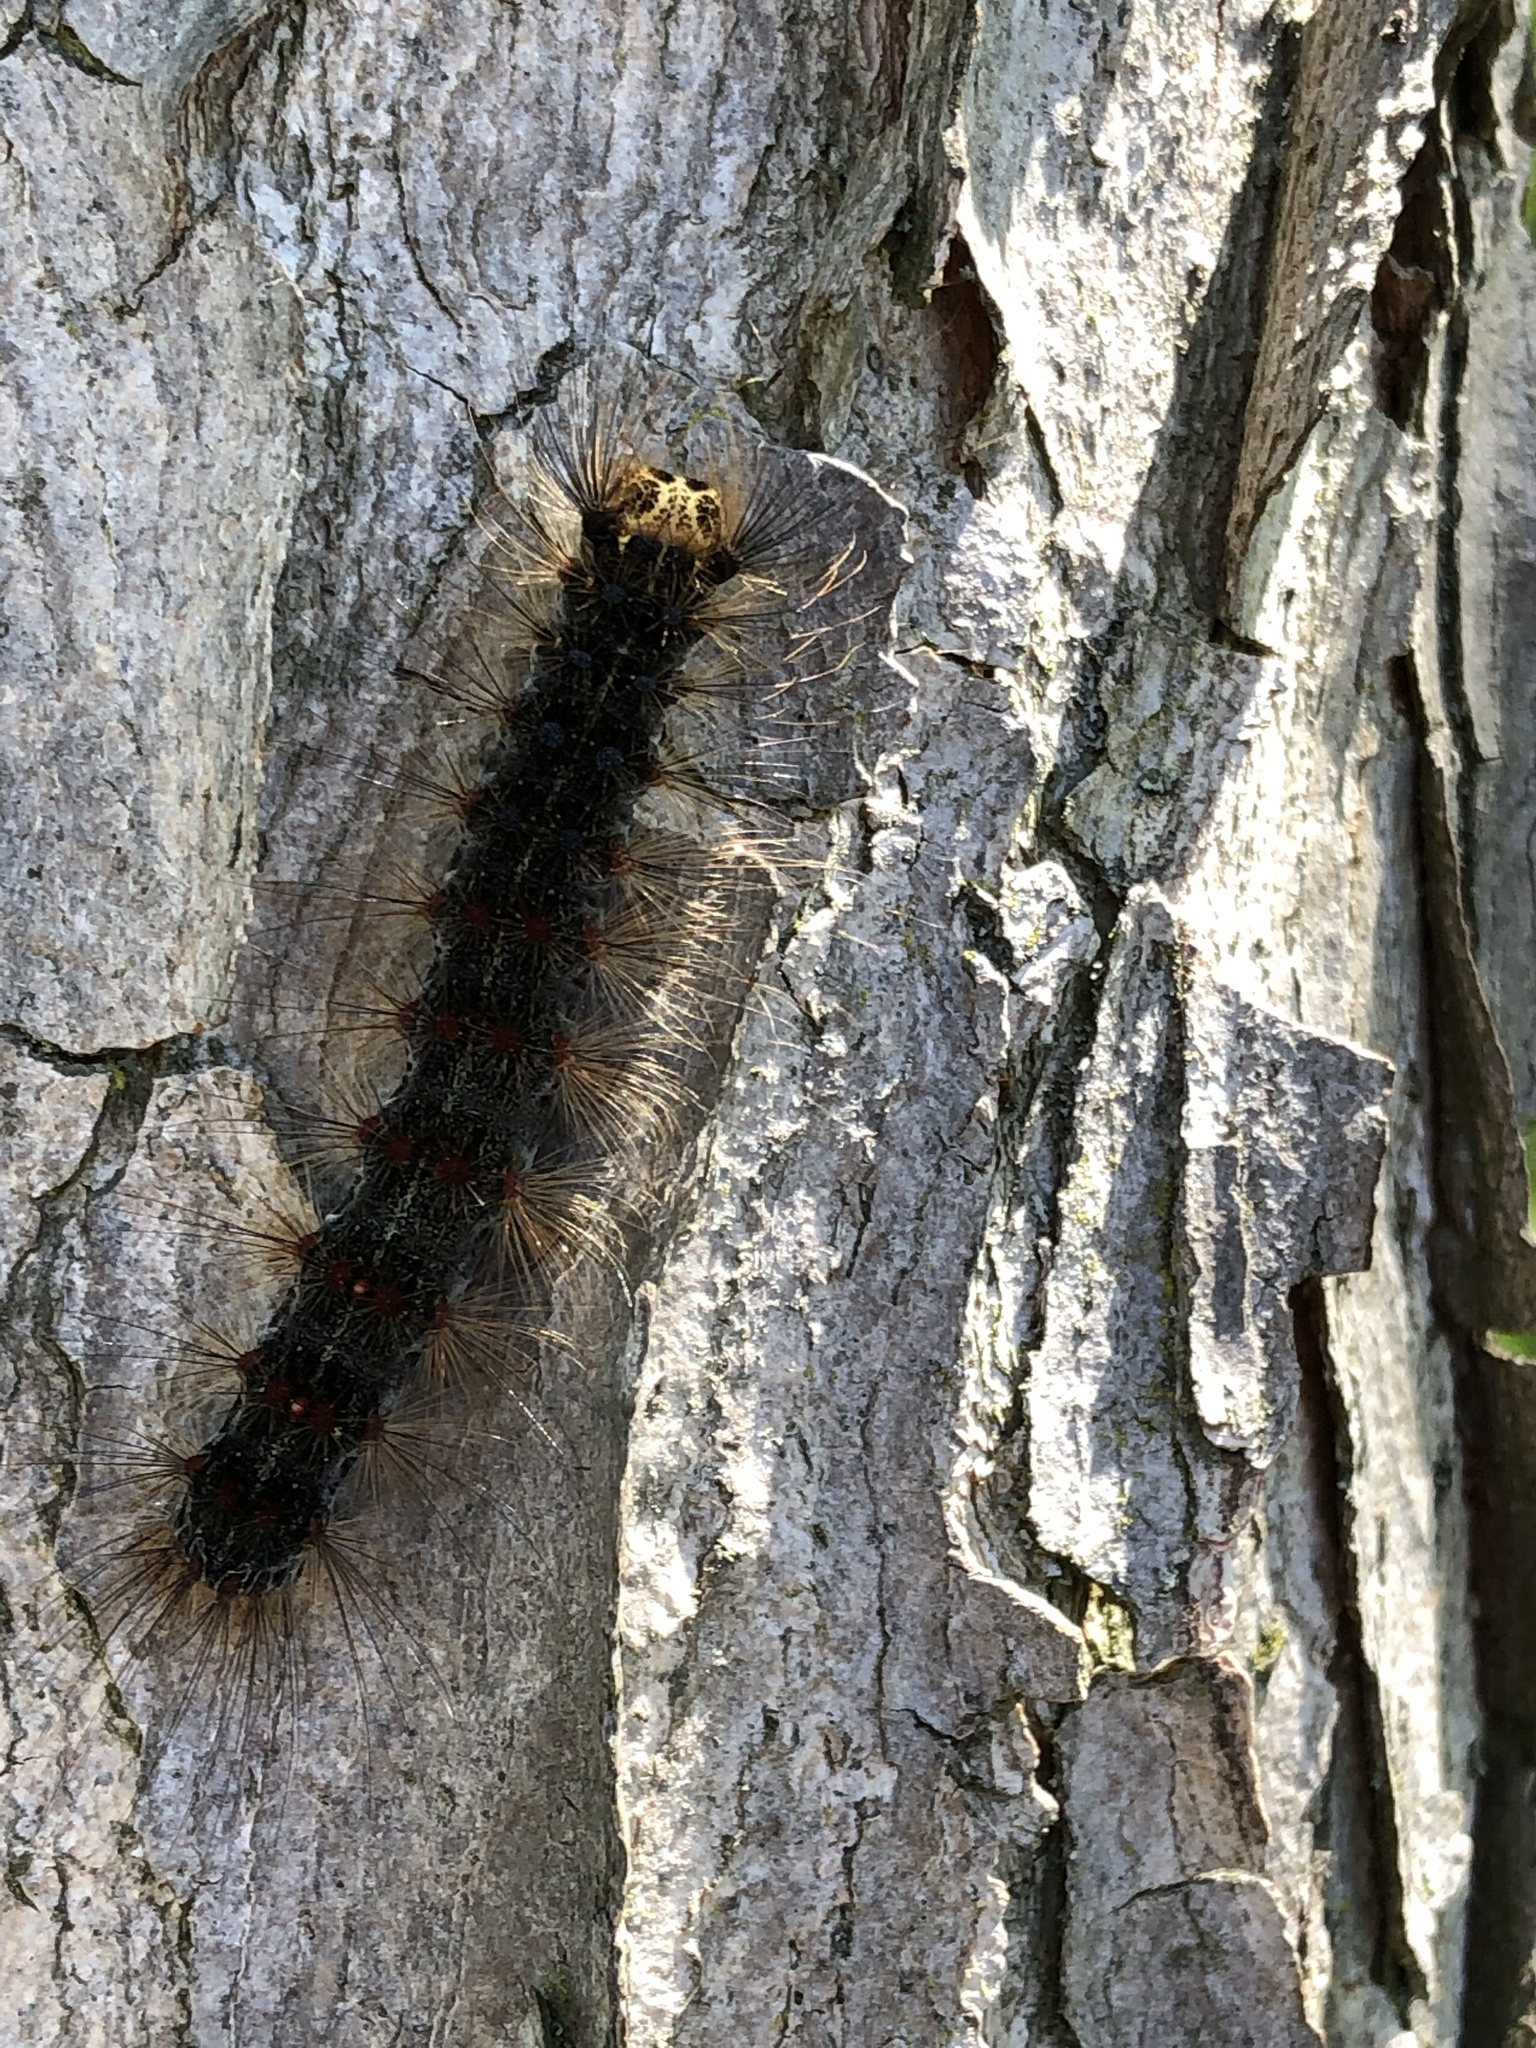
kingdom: Animalia
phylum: Arthropoda
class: Insecta
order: Lepidoptera
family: Erebidae
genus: Lymantria
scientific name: Lymantria dispar
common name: Gypsy moth
